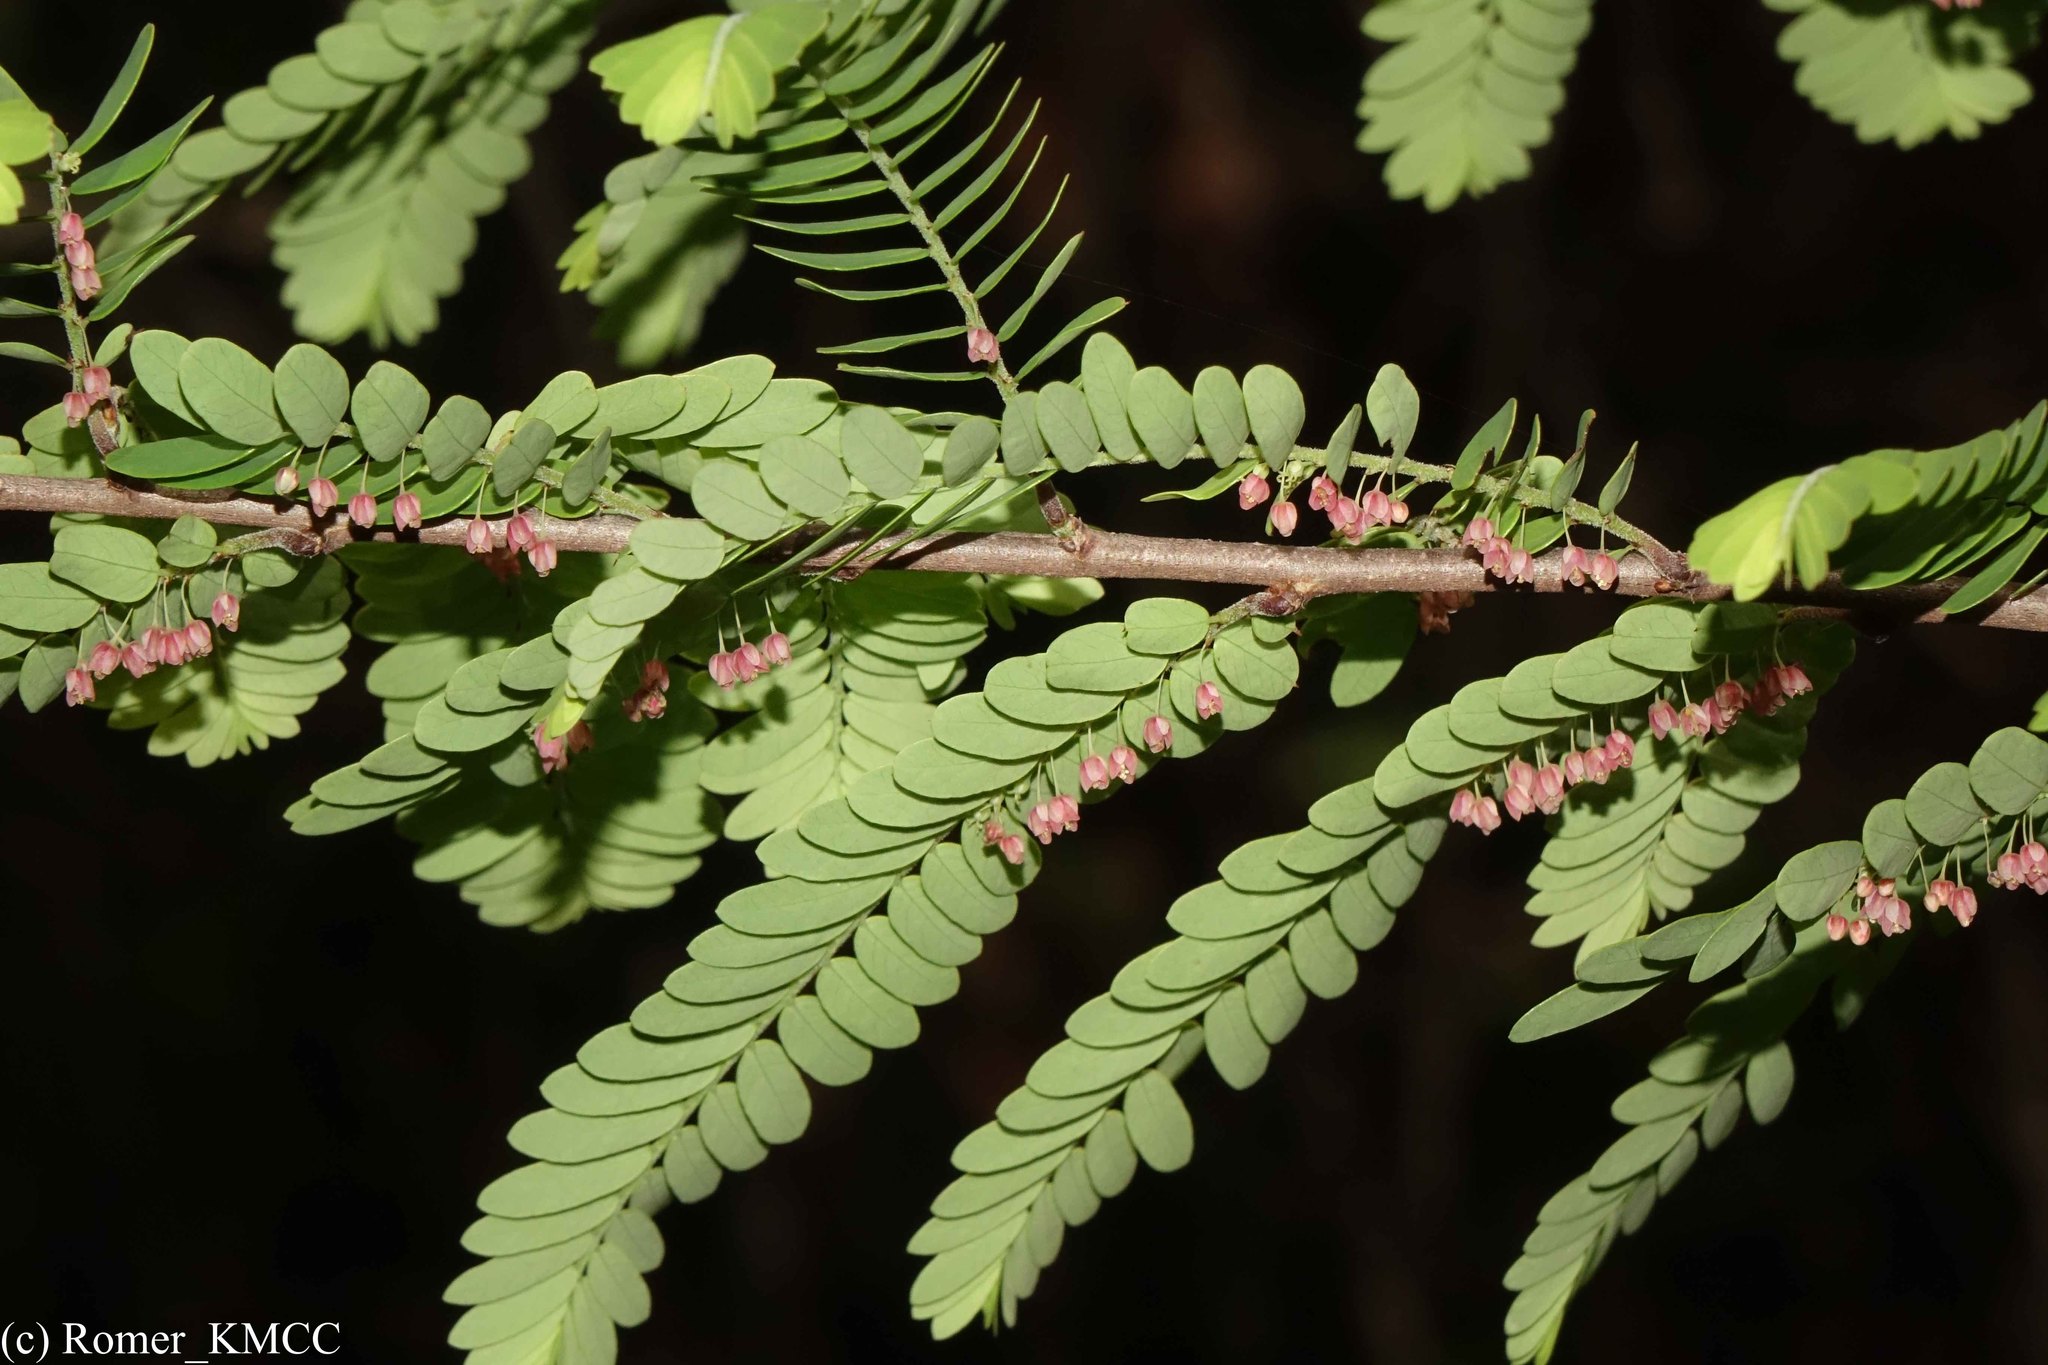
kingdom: Plantae
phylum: Tracheophyta
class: Magnoliopsida
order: Malpighiales
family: Phyllanthaceae
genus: Phyllanthus
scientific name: Phyllanthus casticum
